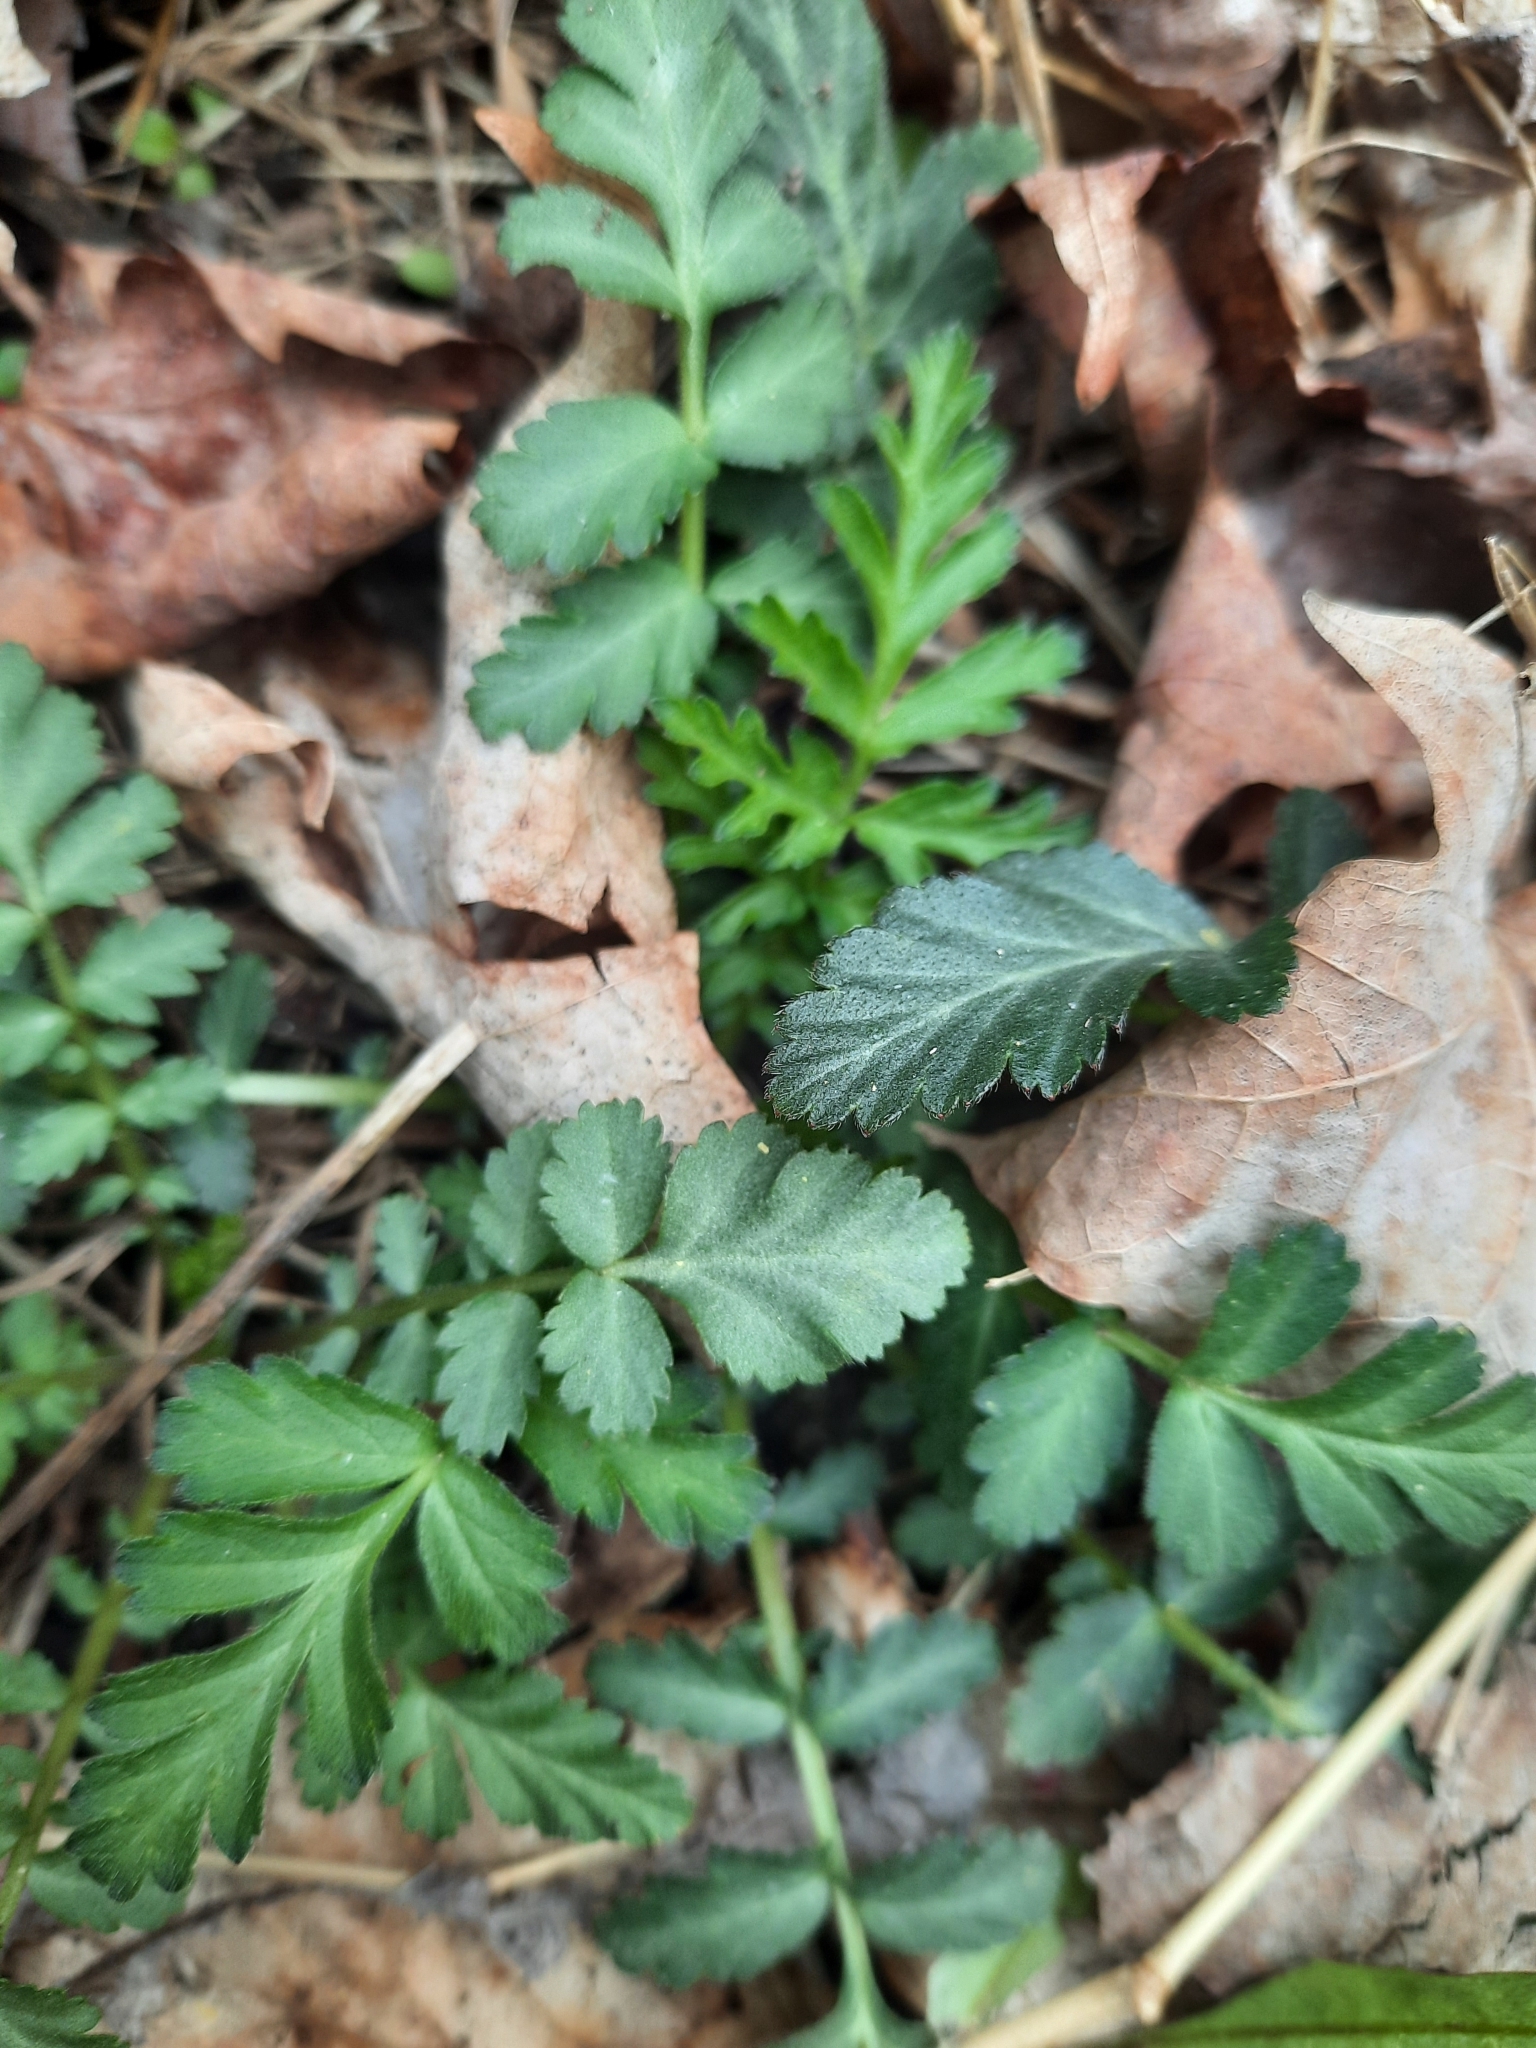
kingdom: Plantae
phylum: Tracheophyta
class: Magnoliopsida
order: Rosales
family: Rosaceae
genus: Geum
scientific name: Geum canadense
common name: White avens
